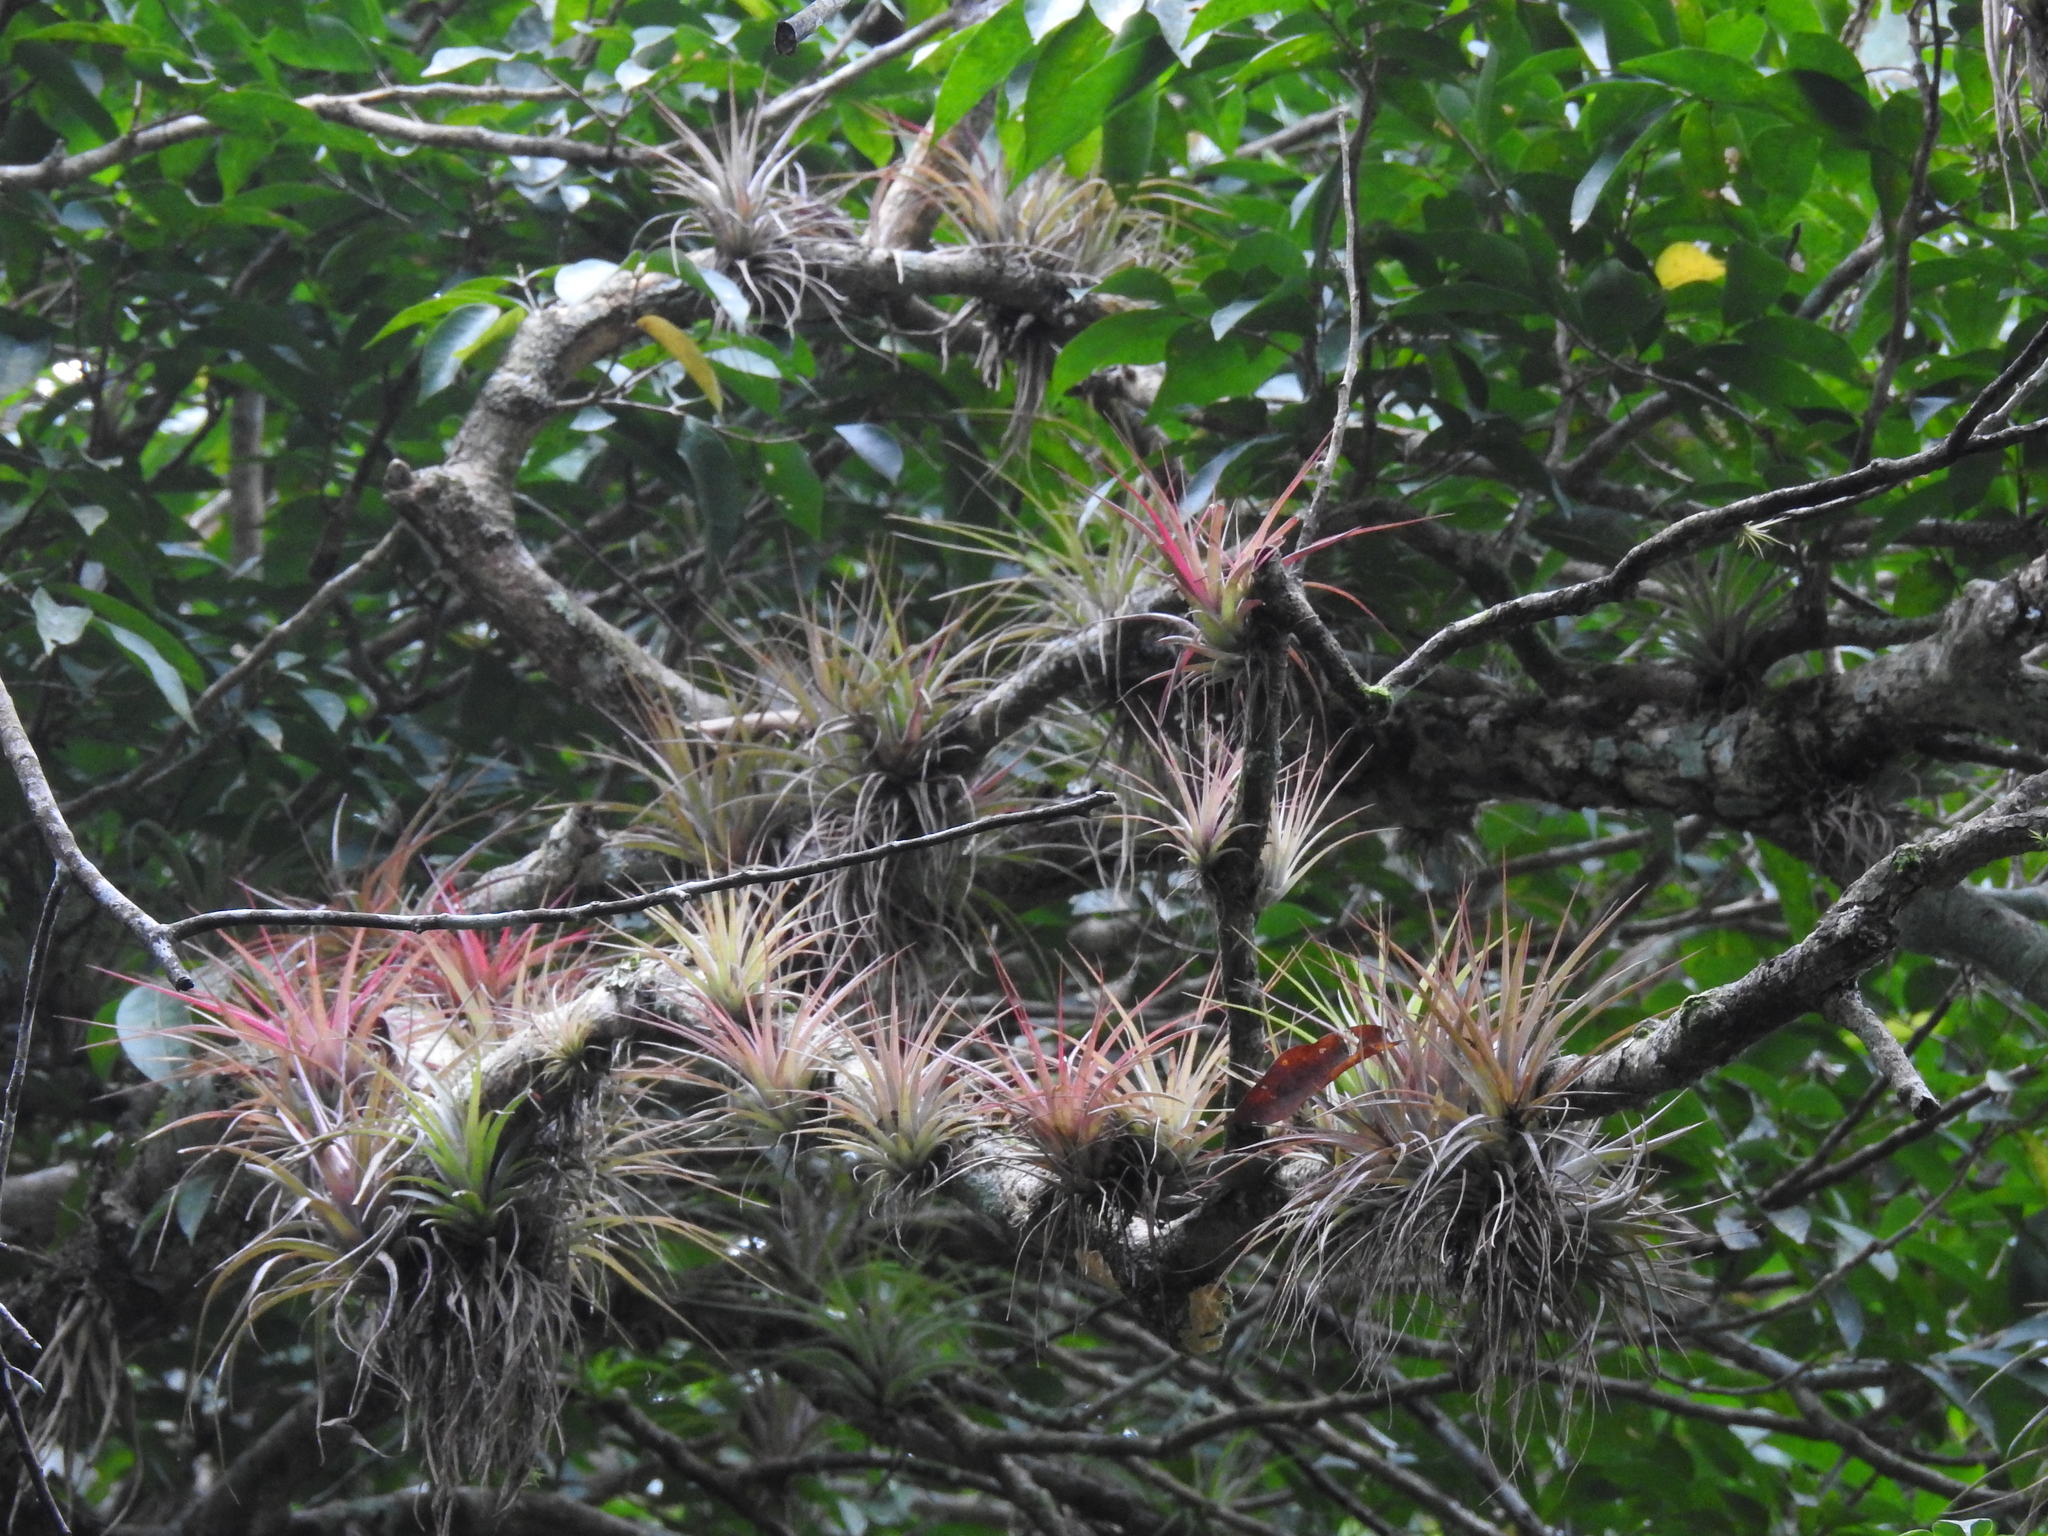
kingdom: Plantae
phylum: Tracheophyta
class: Liliopsida
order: Poales
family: Bromeliaceae
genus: Tillandsia
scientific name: Tillandsia fasciculata
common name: Giant airplant
